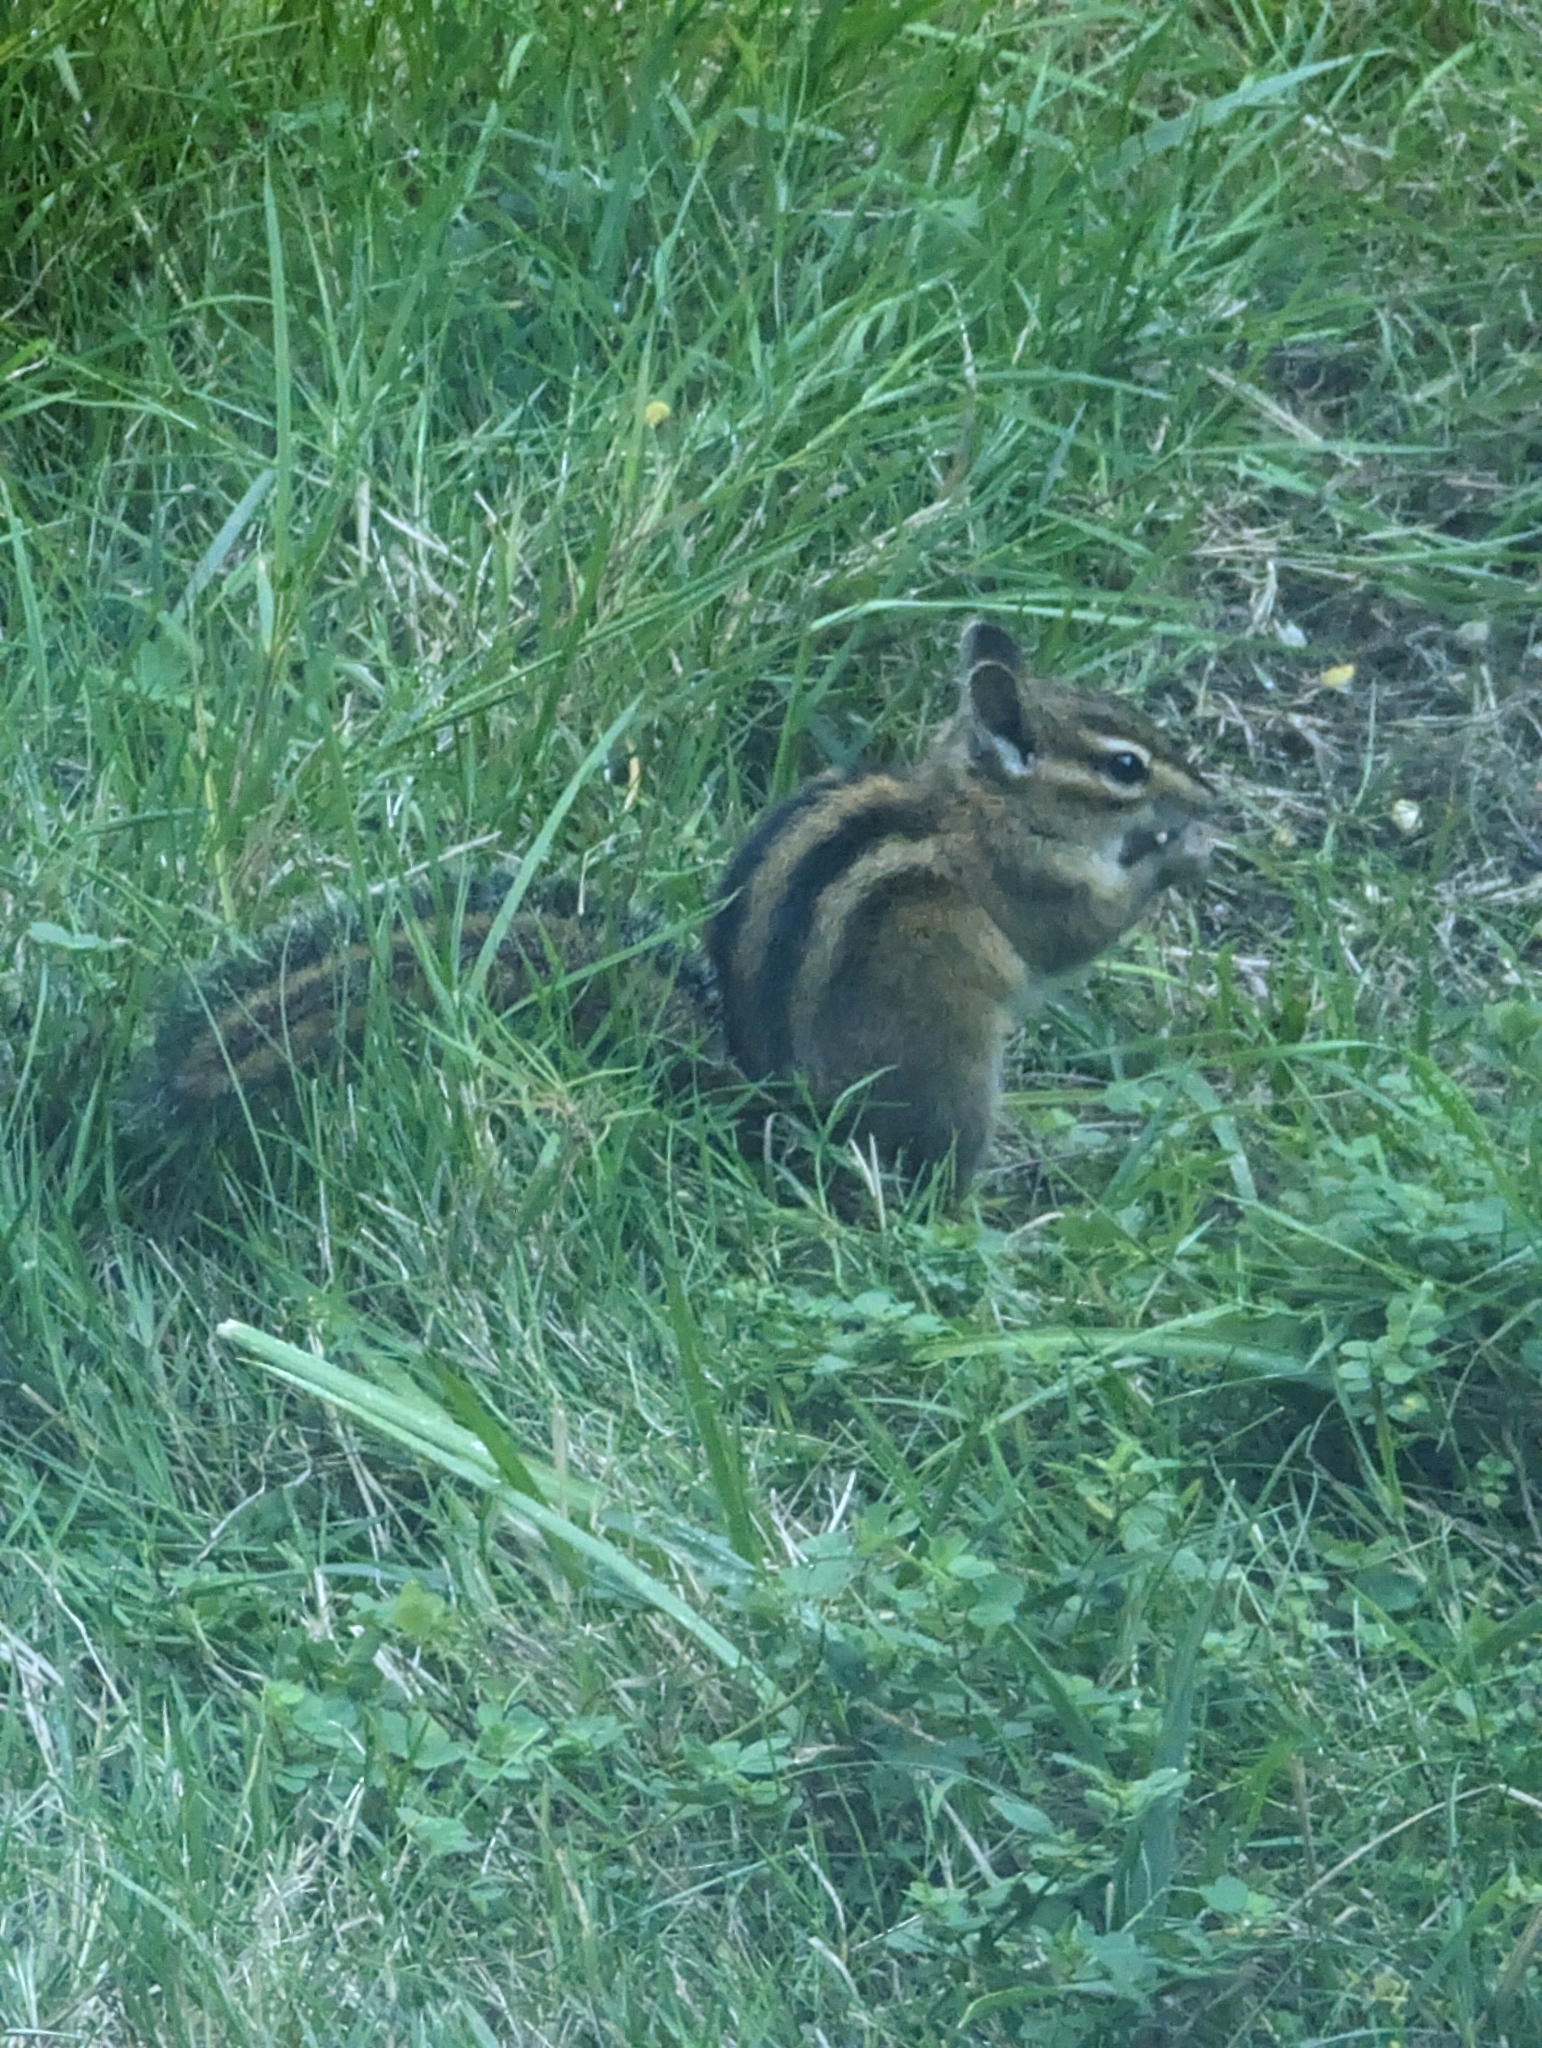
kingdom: Animalia
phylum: Chordata
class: Mammalia
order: Rodentia
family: Sciuridae
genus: Tamias
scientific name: Tamias townsendii
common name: Townsend's chipmunk
